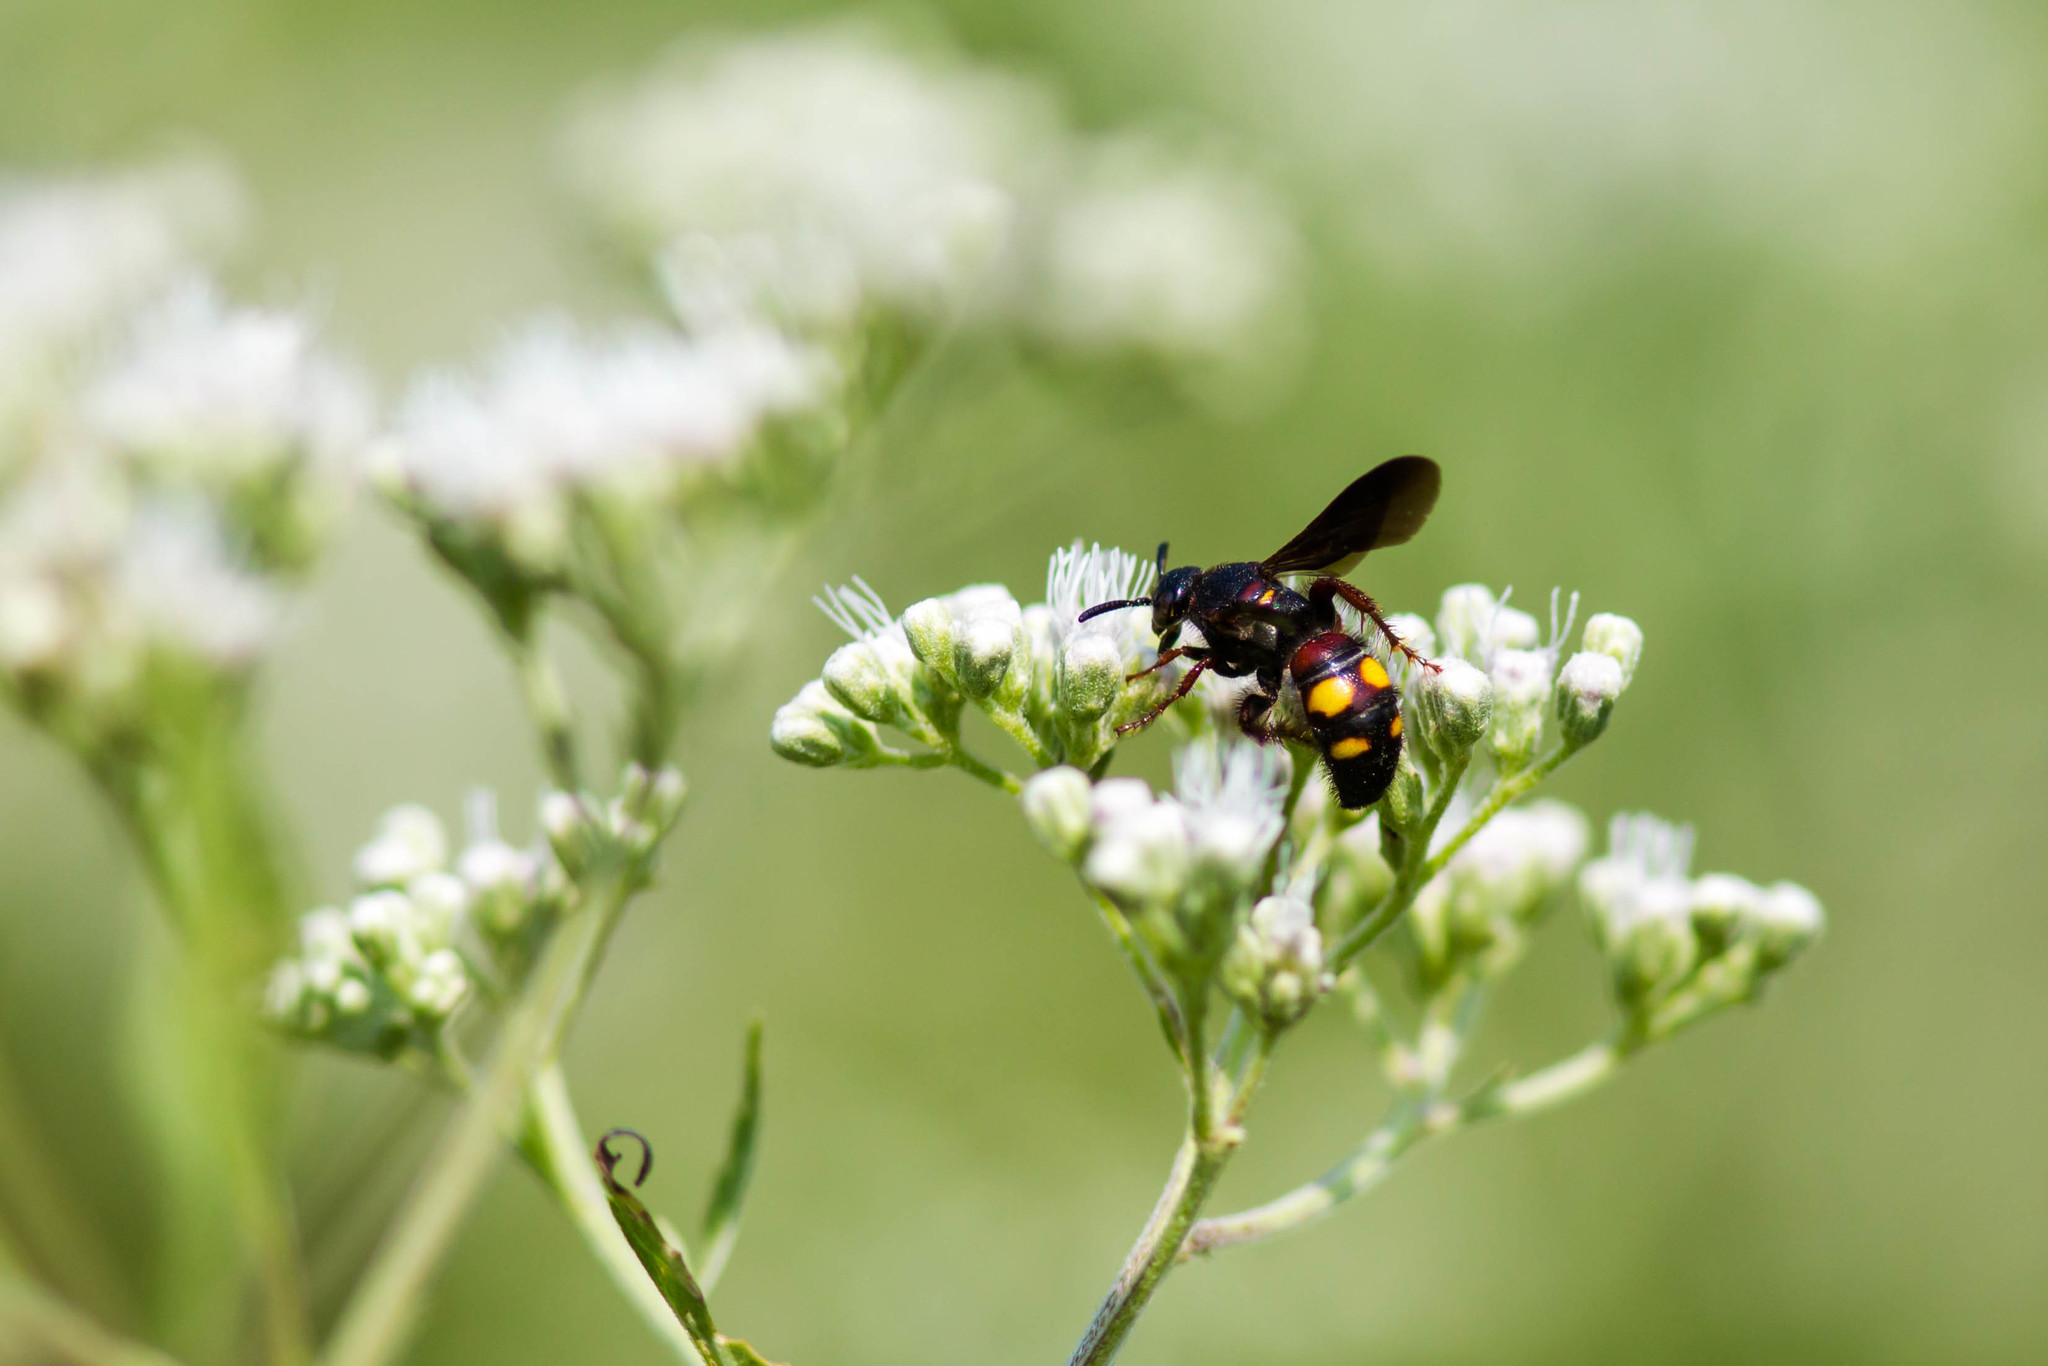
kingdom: Animalia
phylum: Arthropoda
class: Insecta
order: Hymenoptera
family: Scoliidae
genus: Scolia
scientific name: Scolia nobilitata
